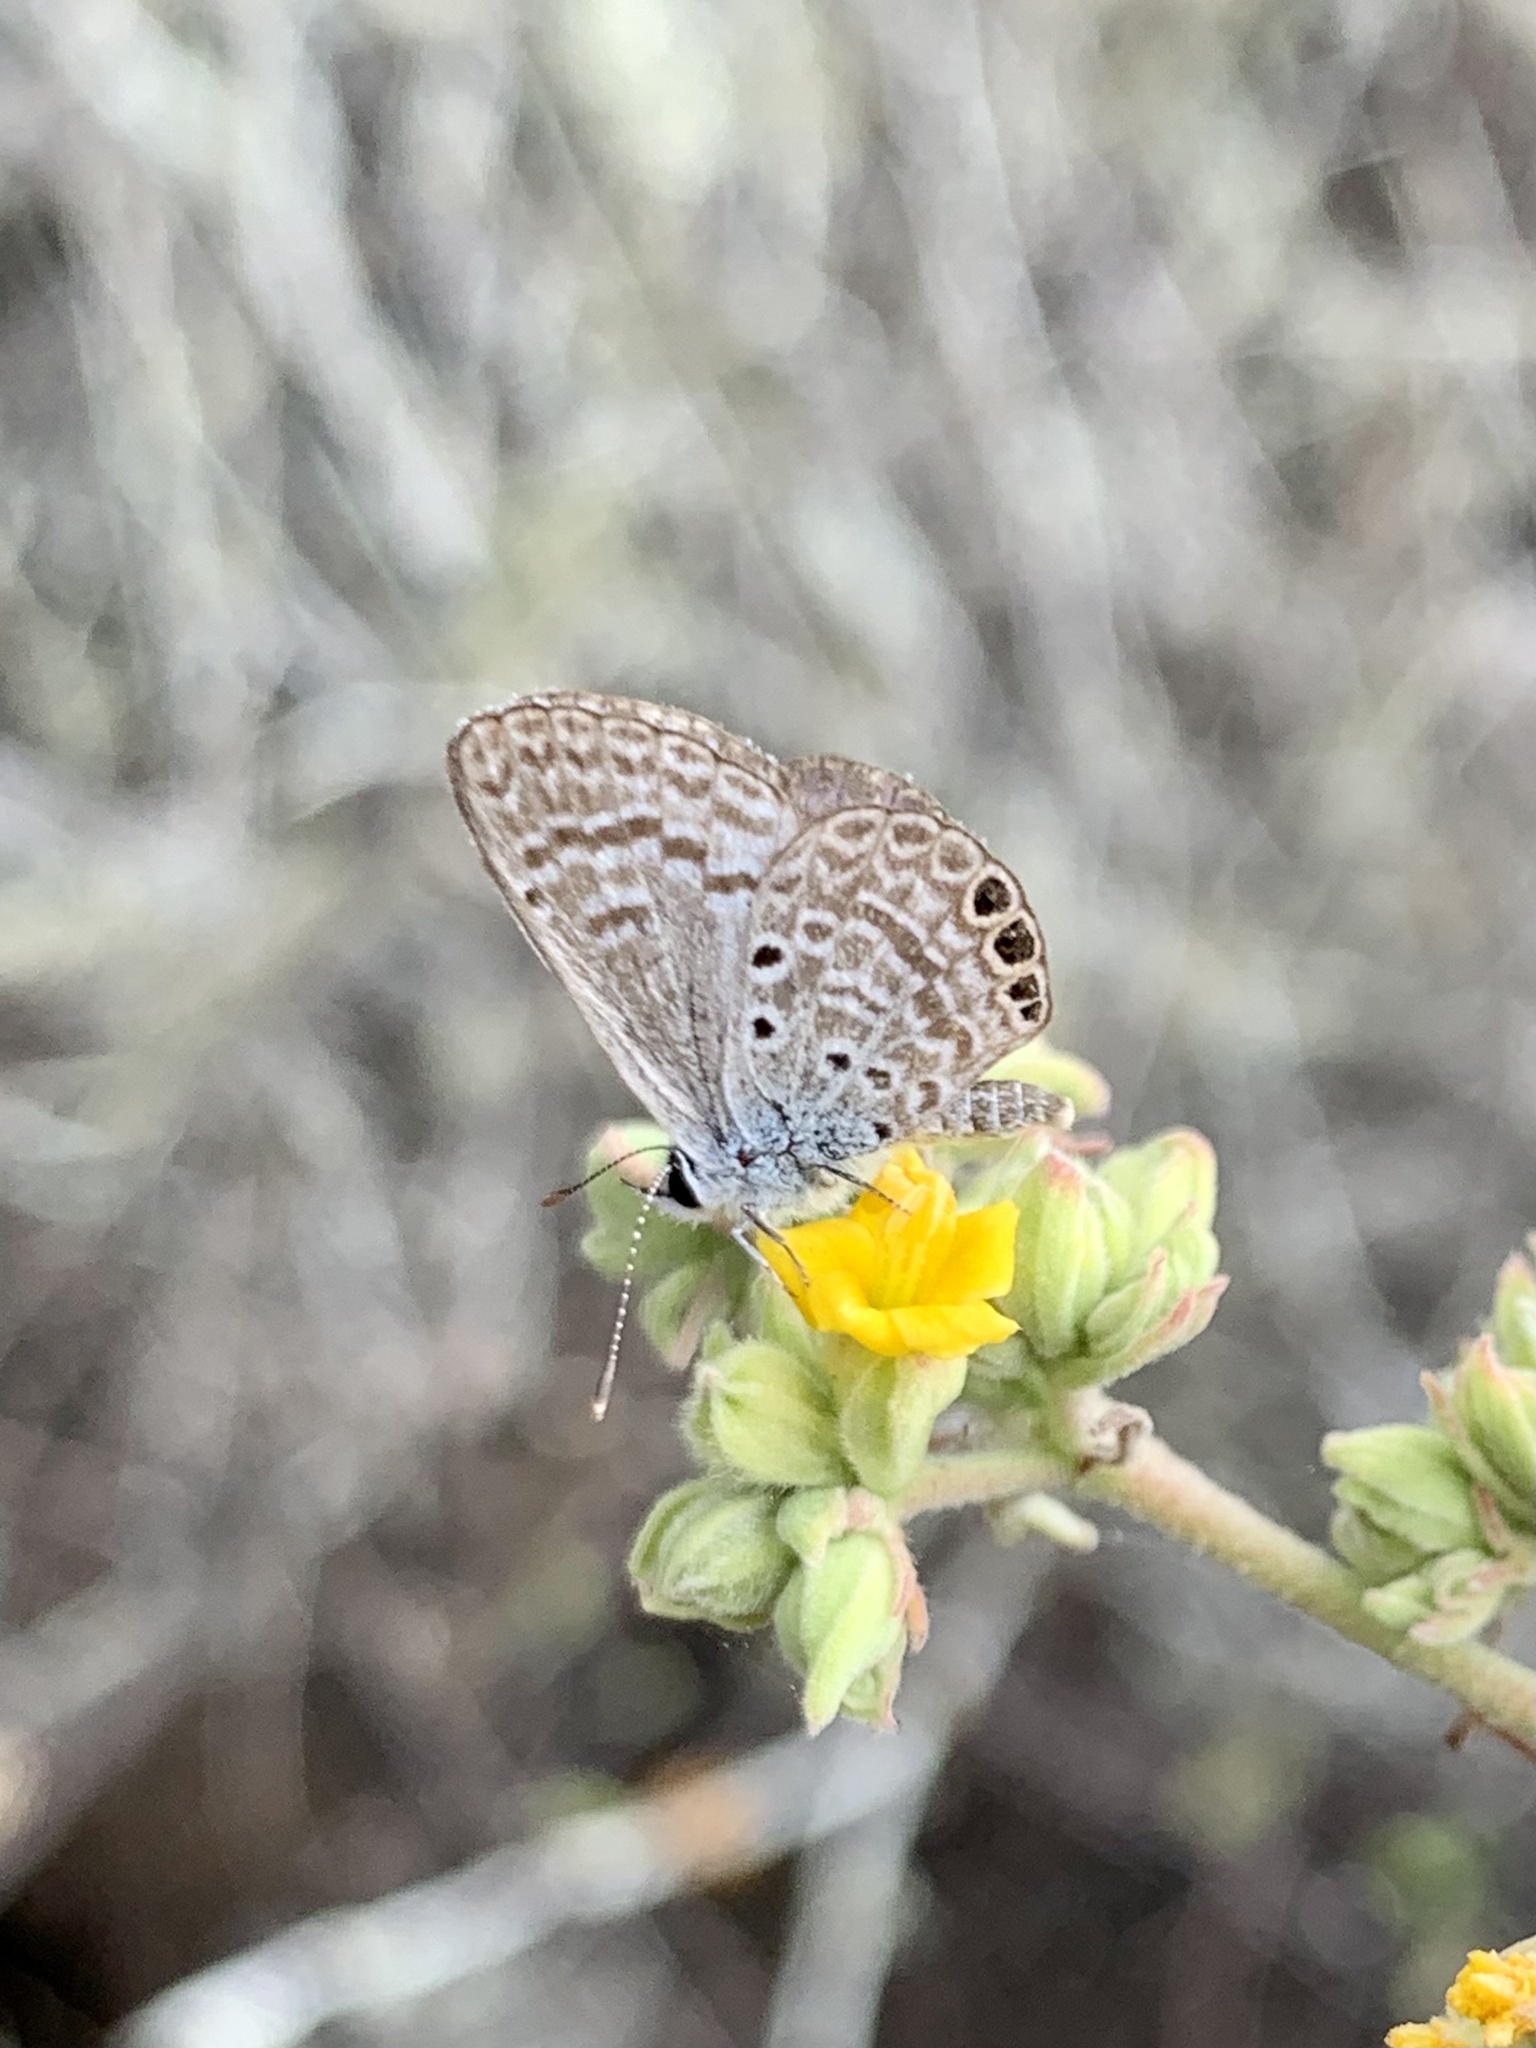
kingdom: Animalia
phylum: Arthropoda
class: Insecta
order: Lepidoptera
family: Lycaenidae
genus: Hemiargus
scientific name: Hemiargus ramon
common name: Ramon blue
